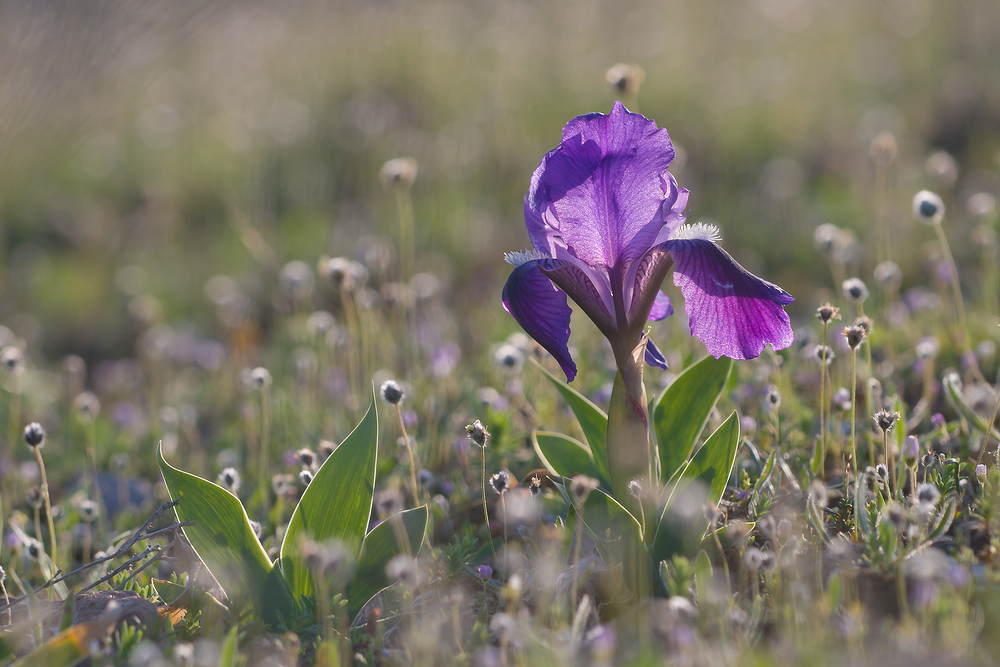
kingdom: Plantae
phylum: Tracheophyta
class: Liliopsida
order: Asparagales
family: Iridaceae
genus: Iris
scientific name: Iris lutescens
